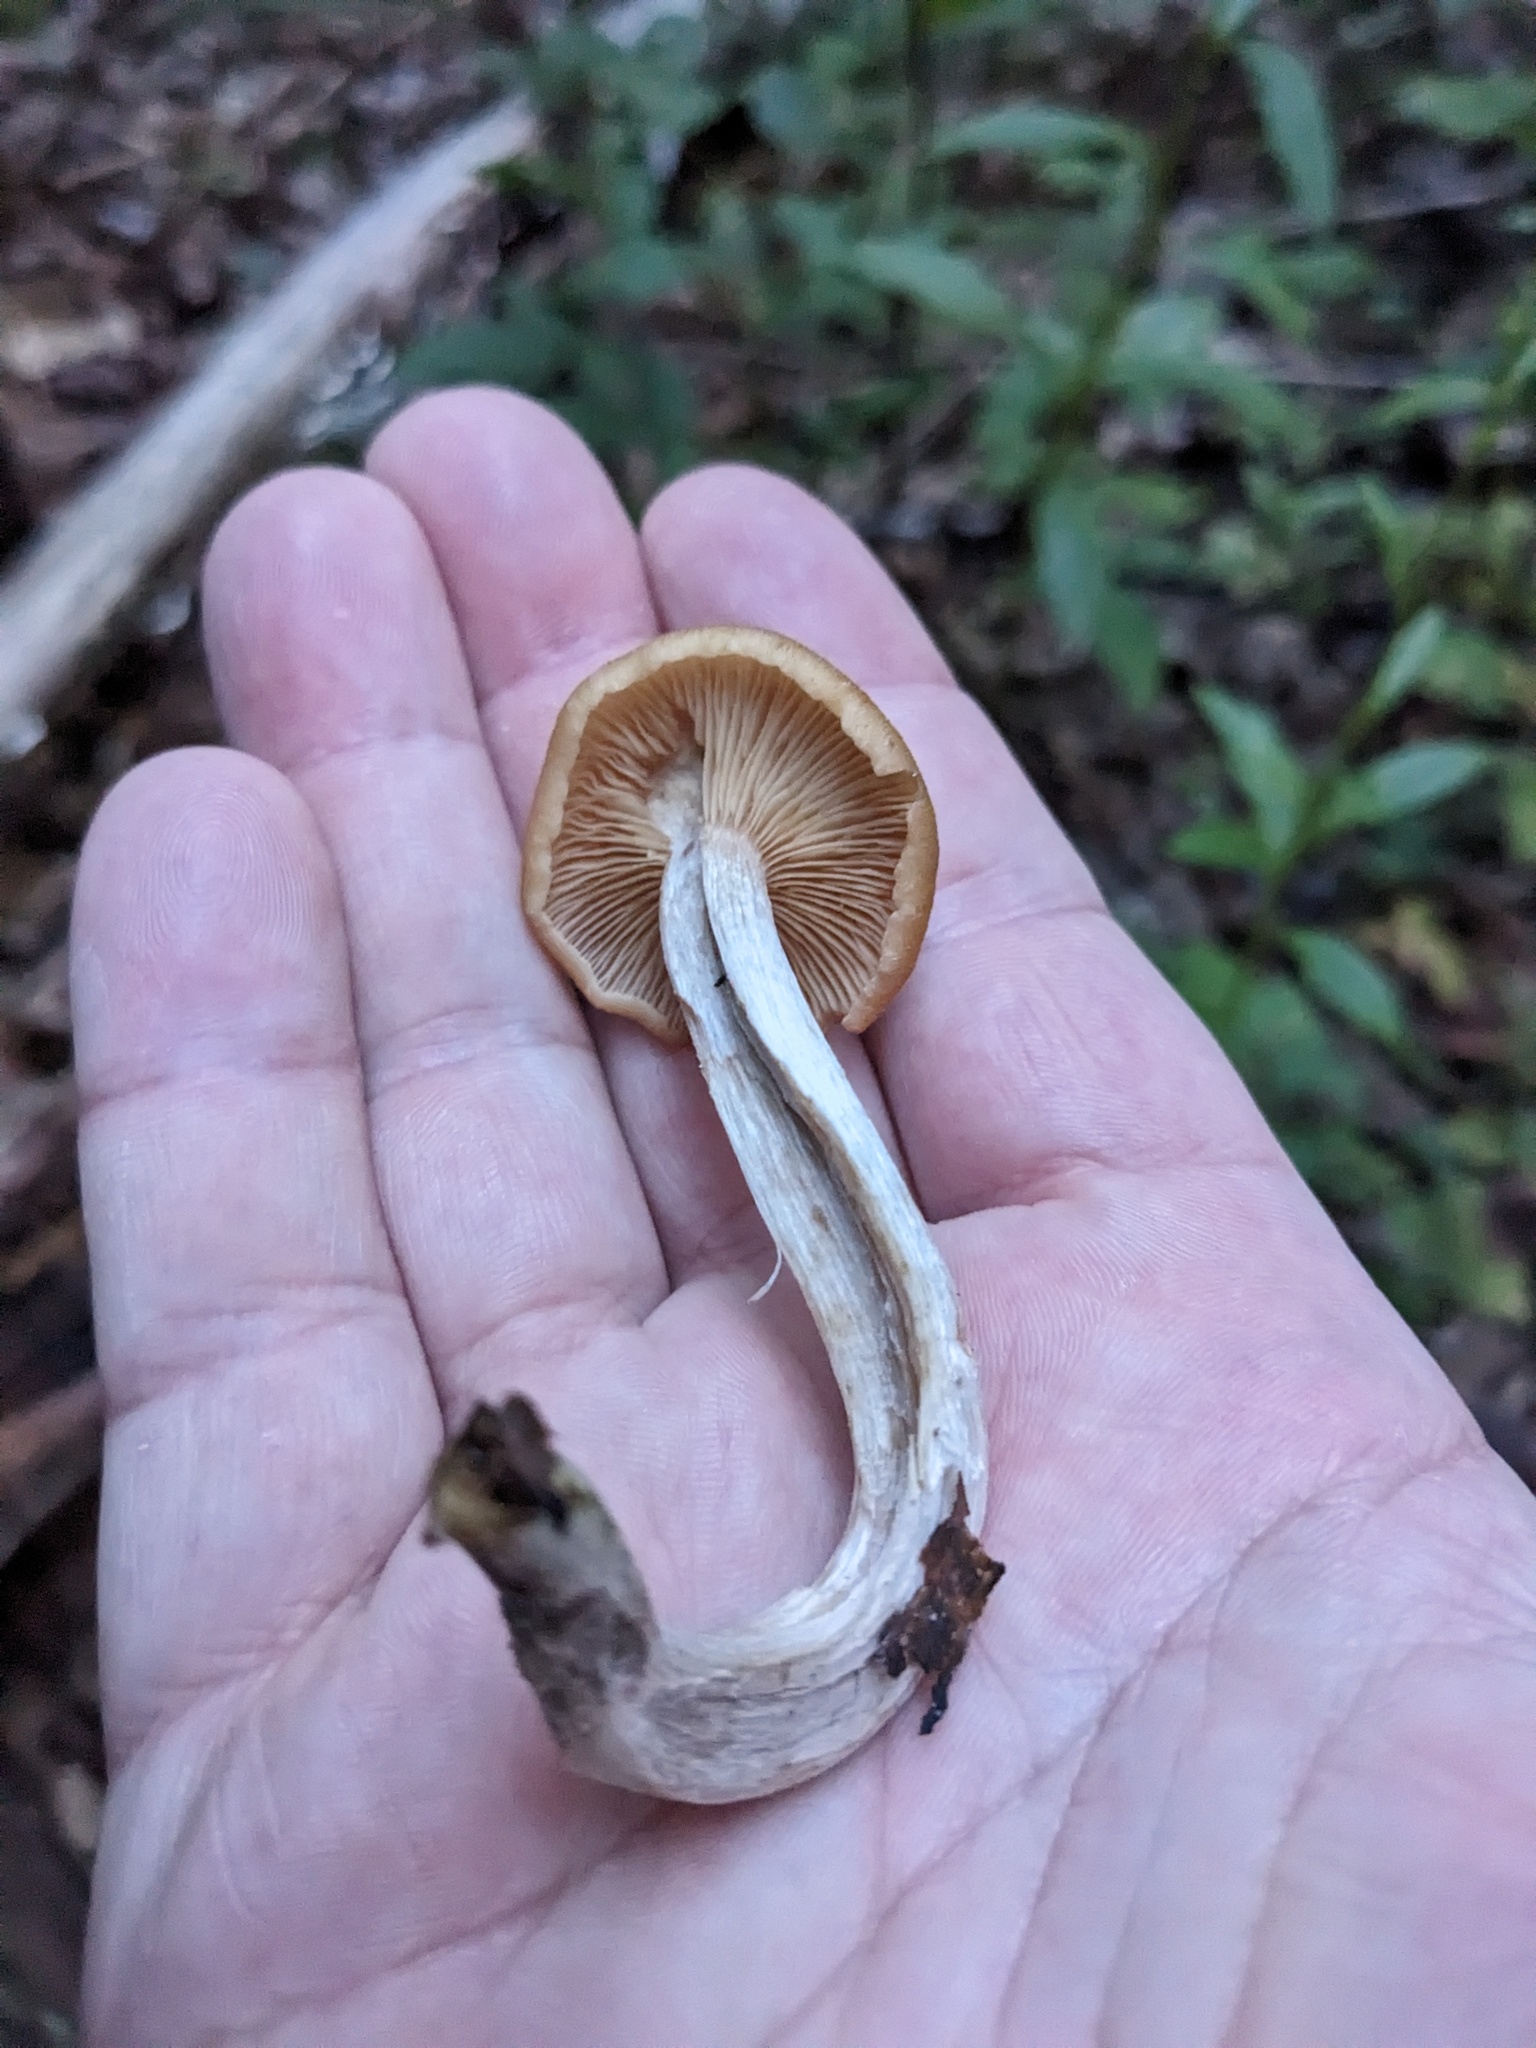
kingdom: Fungi
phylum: Basidiomycota
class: Agaricomycetes
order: Agaricales
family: Physalacriaceae
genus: Desarmillaria
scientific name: Desarmillaria caespitosa
